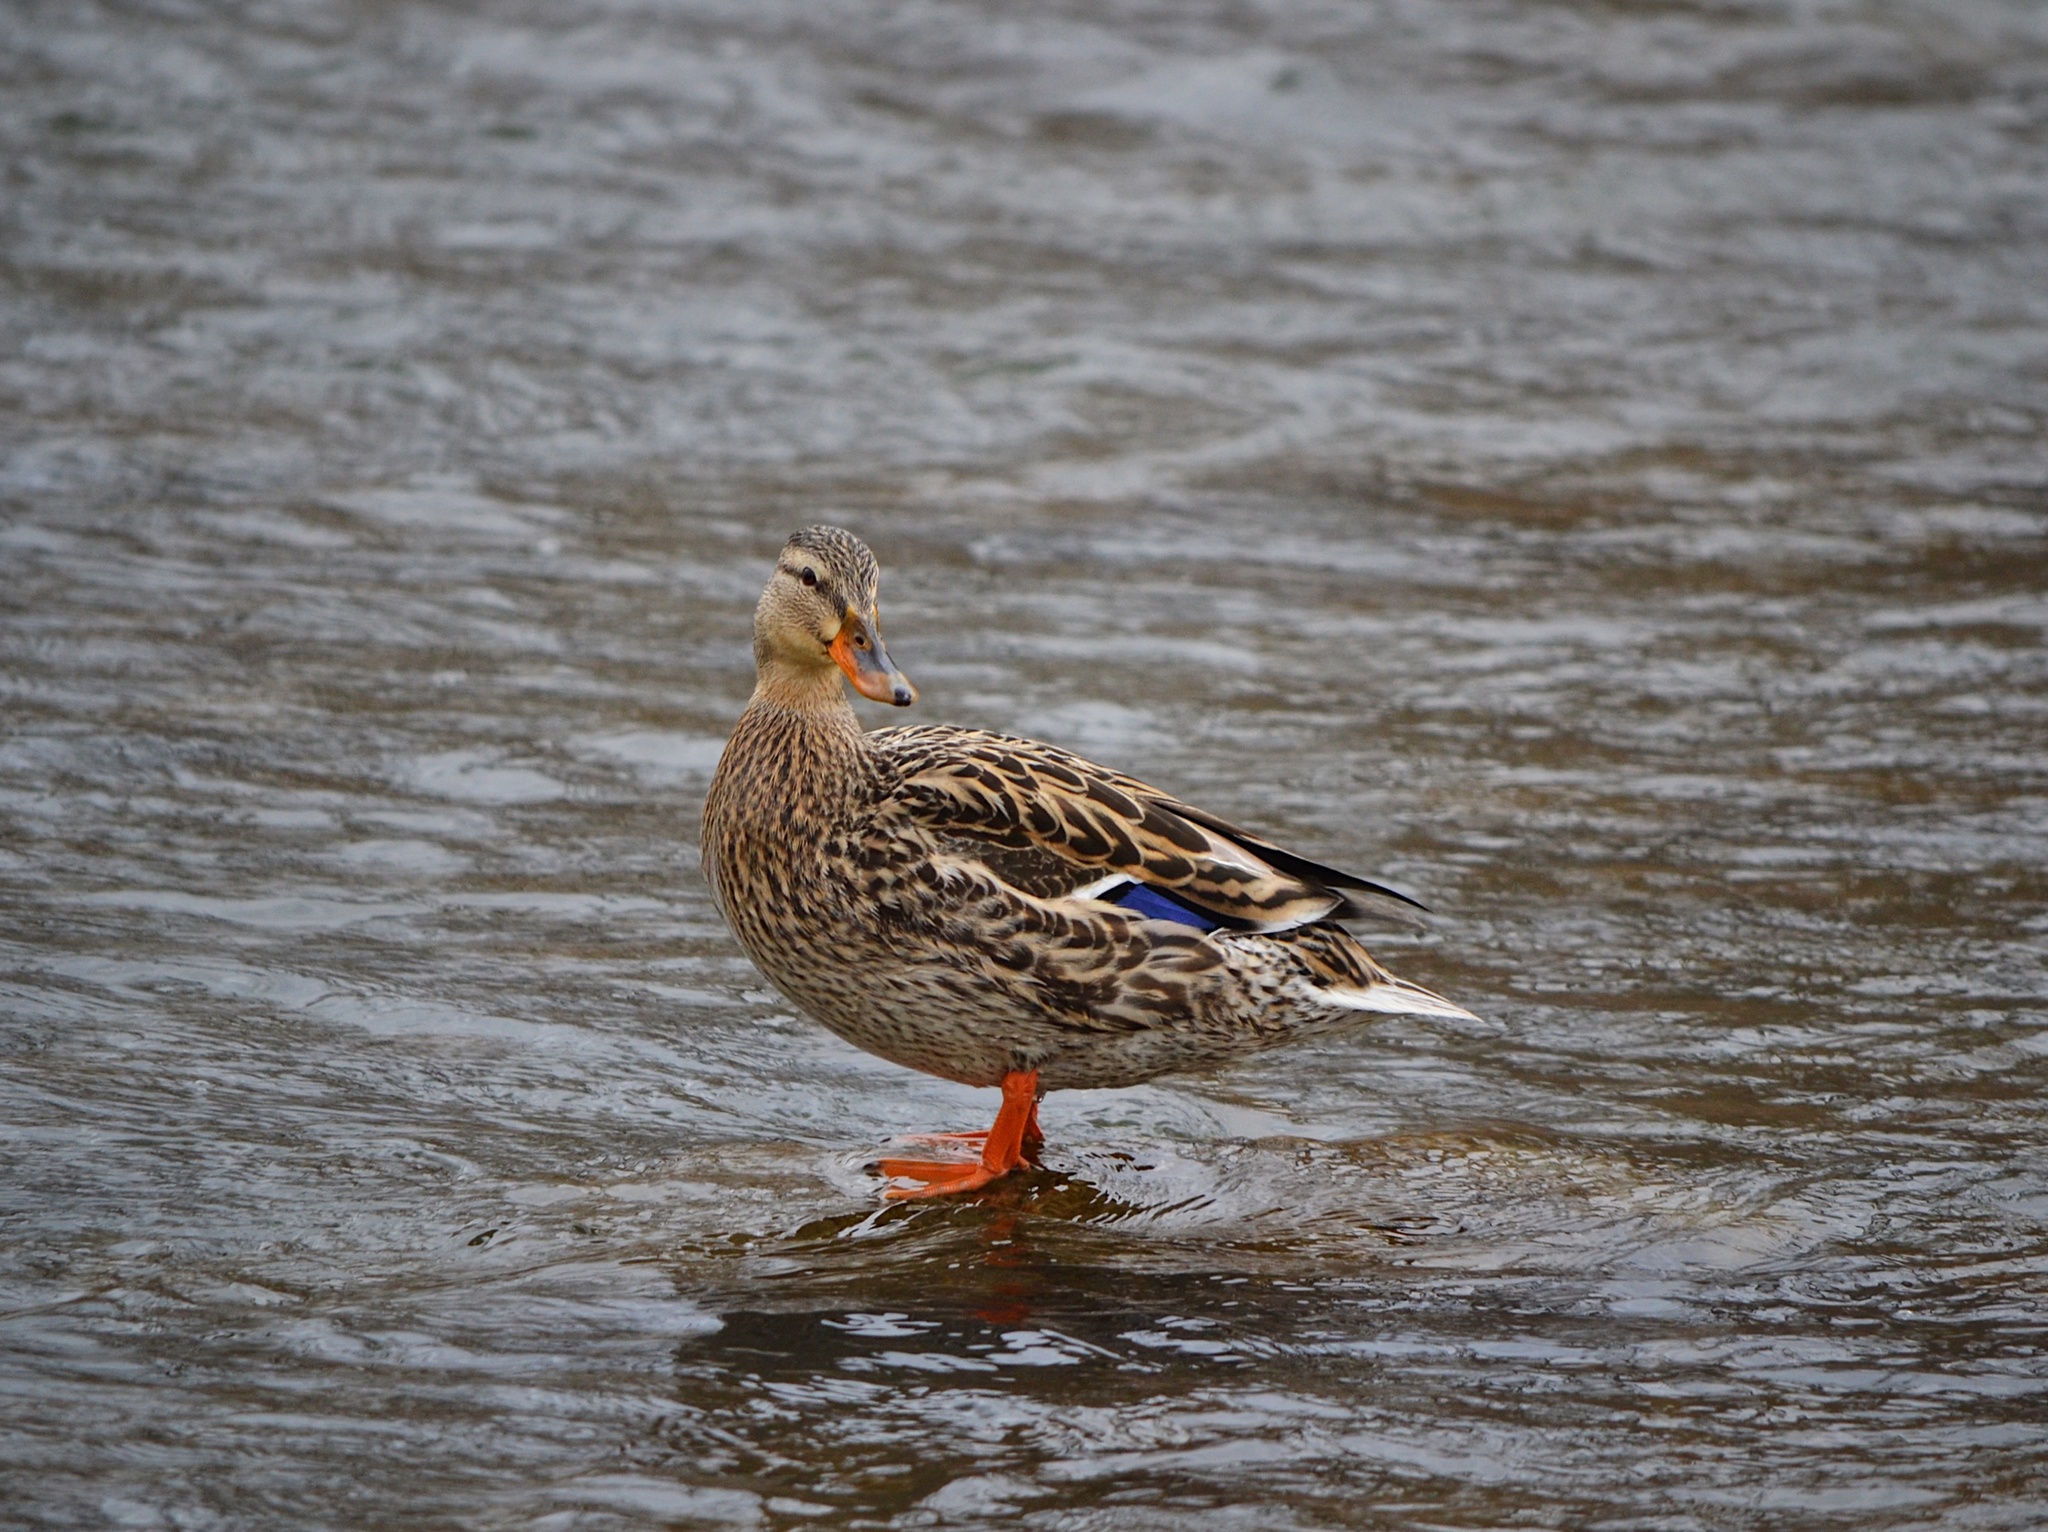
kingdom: Animalia
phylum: Chordata
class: Aves
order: Anseriformes
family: Anatidae
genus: Anas
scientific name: Anas platyrhynchos
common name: Mallard
